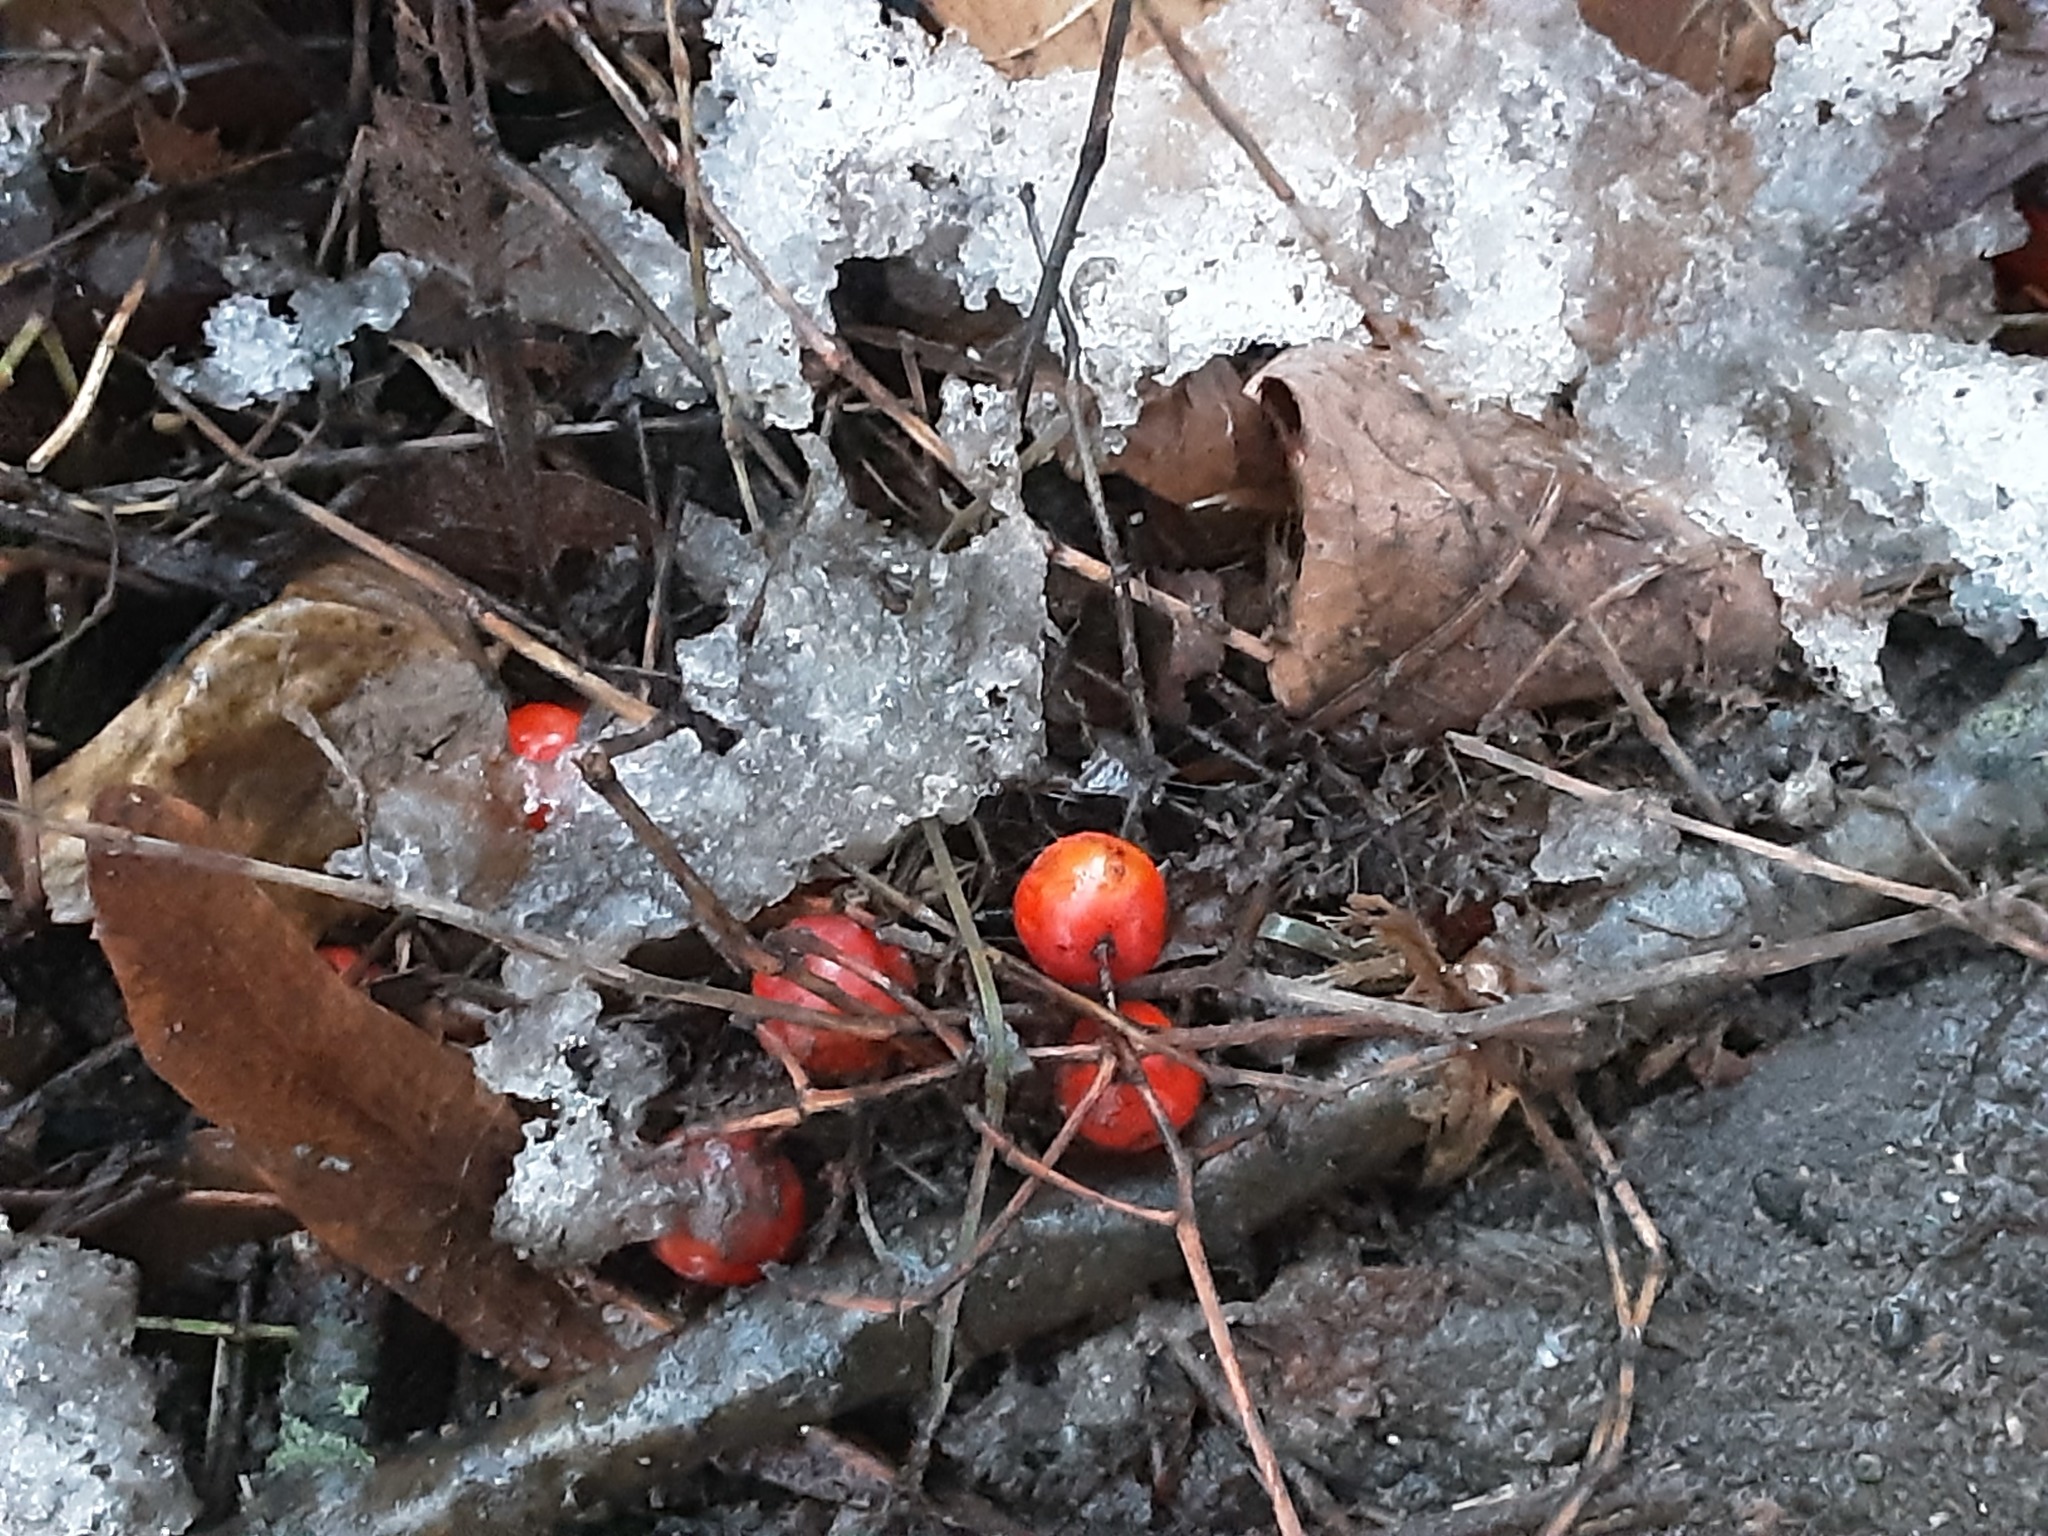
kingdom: Plantae
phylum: Tracheophyta
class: Magnoliopsida
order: Rosales
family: Rosaceae
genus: Sorbus
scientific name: Sorbus aucuparia
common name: Rowan
